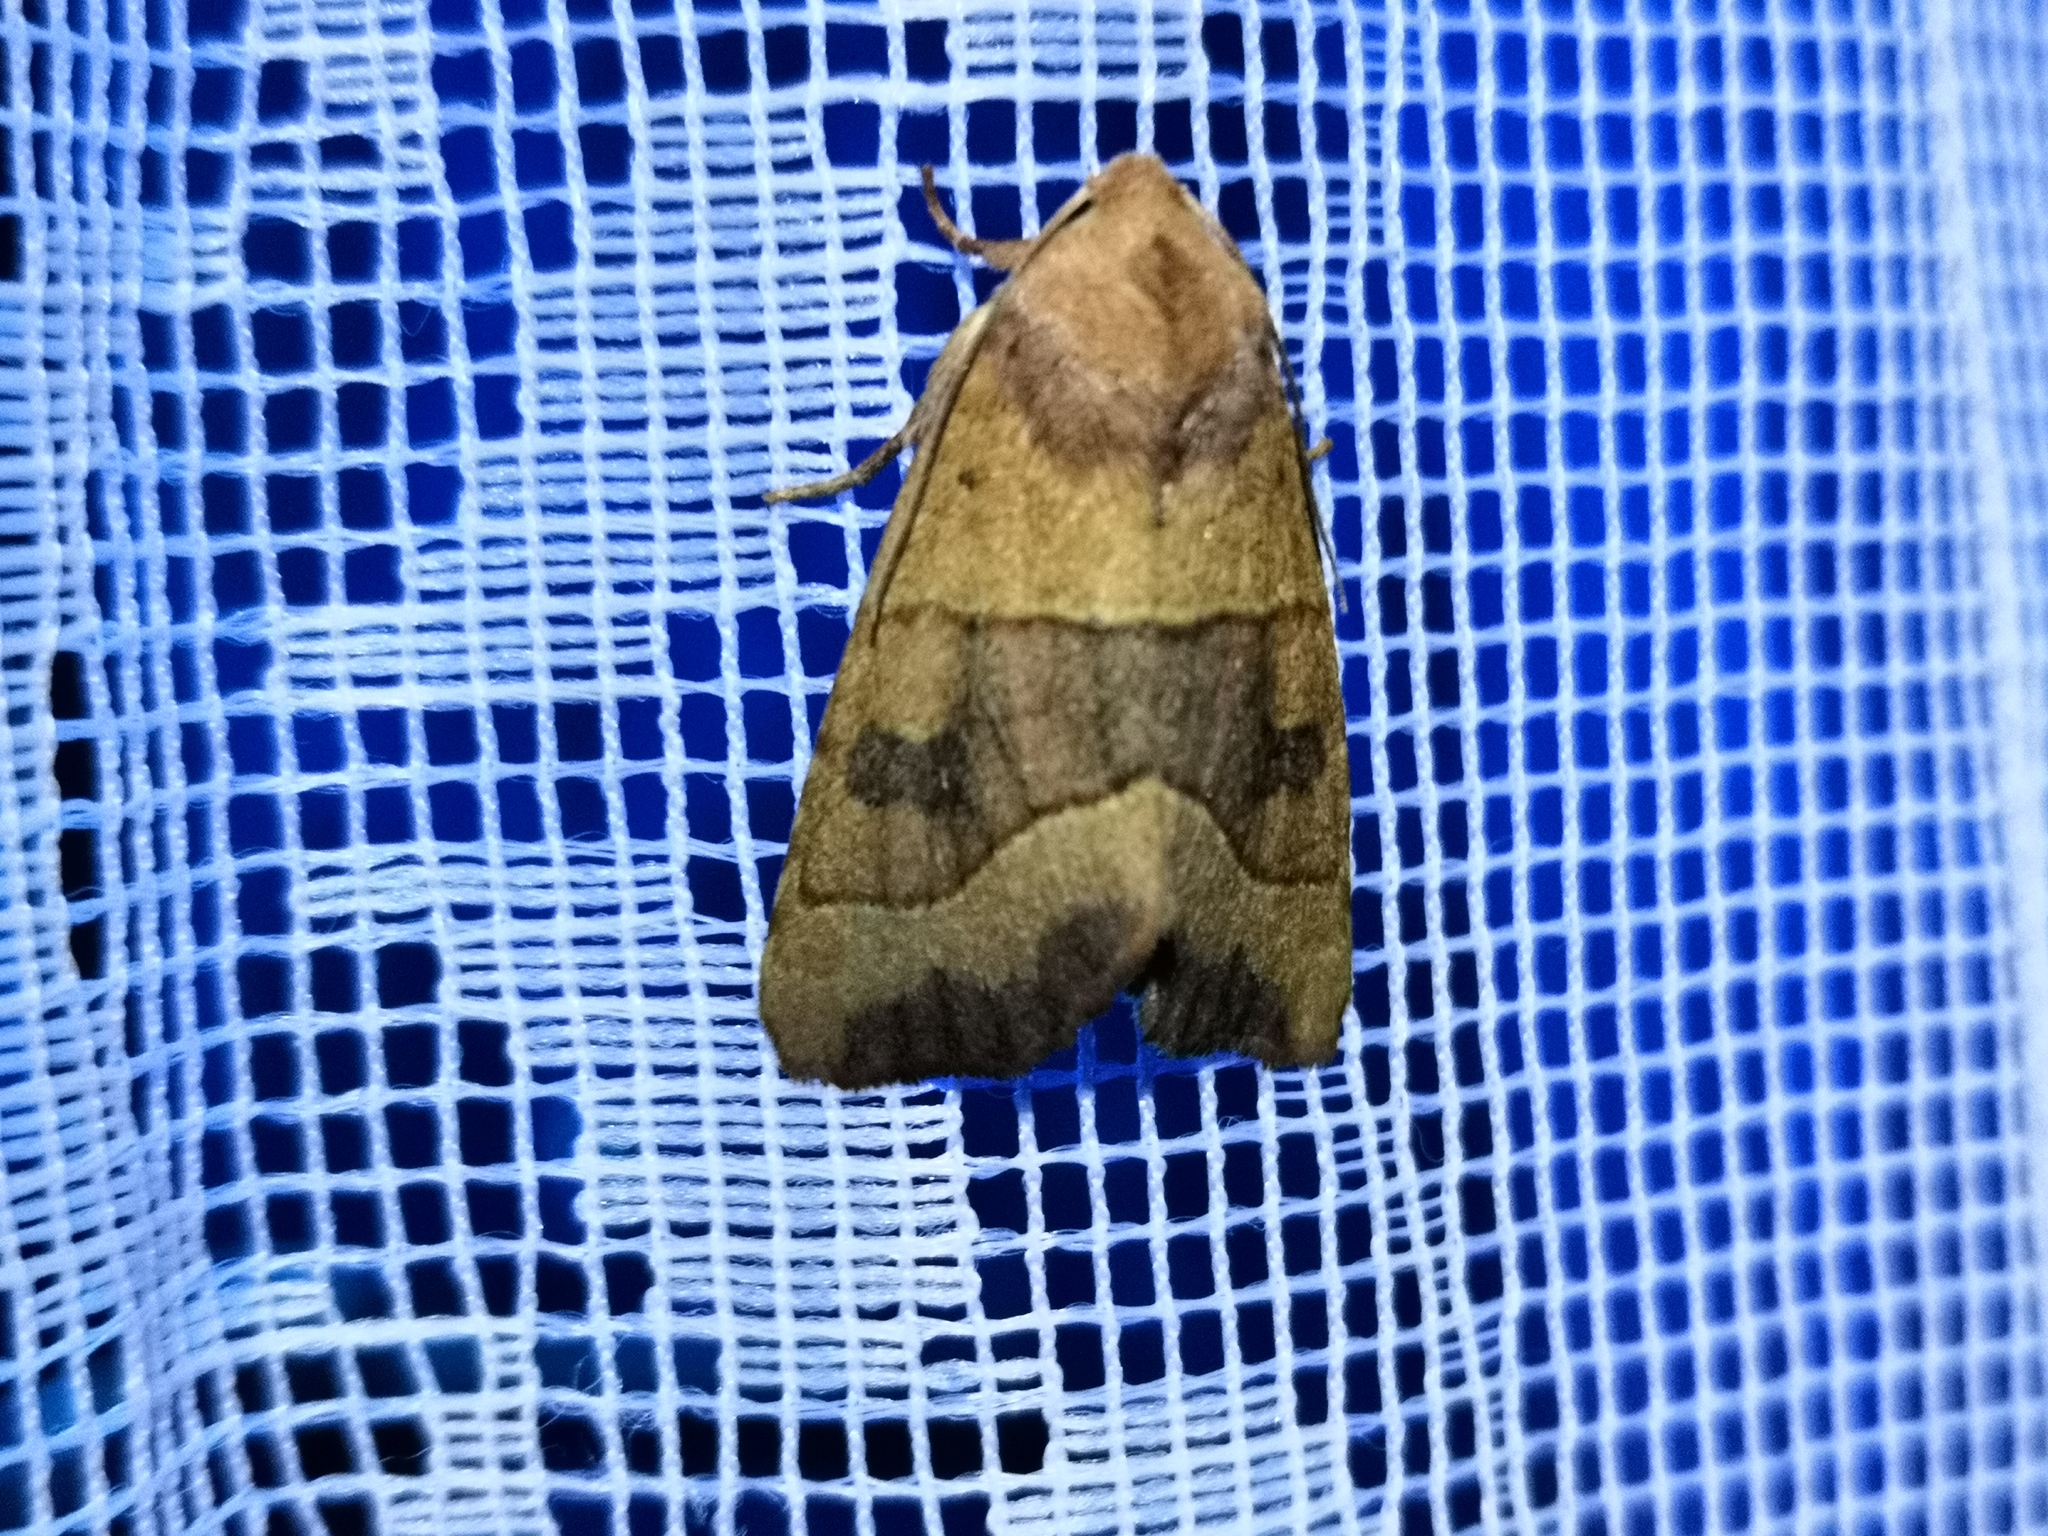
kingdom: Animalia
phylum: Arthropoda
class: Insecta
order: Lepidoptera
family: Noctuidae
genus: Atethmia
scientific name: Atethmia centrago
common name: Centre-barred sallow
